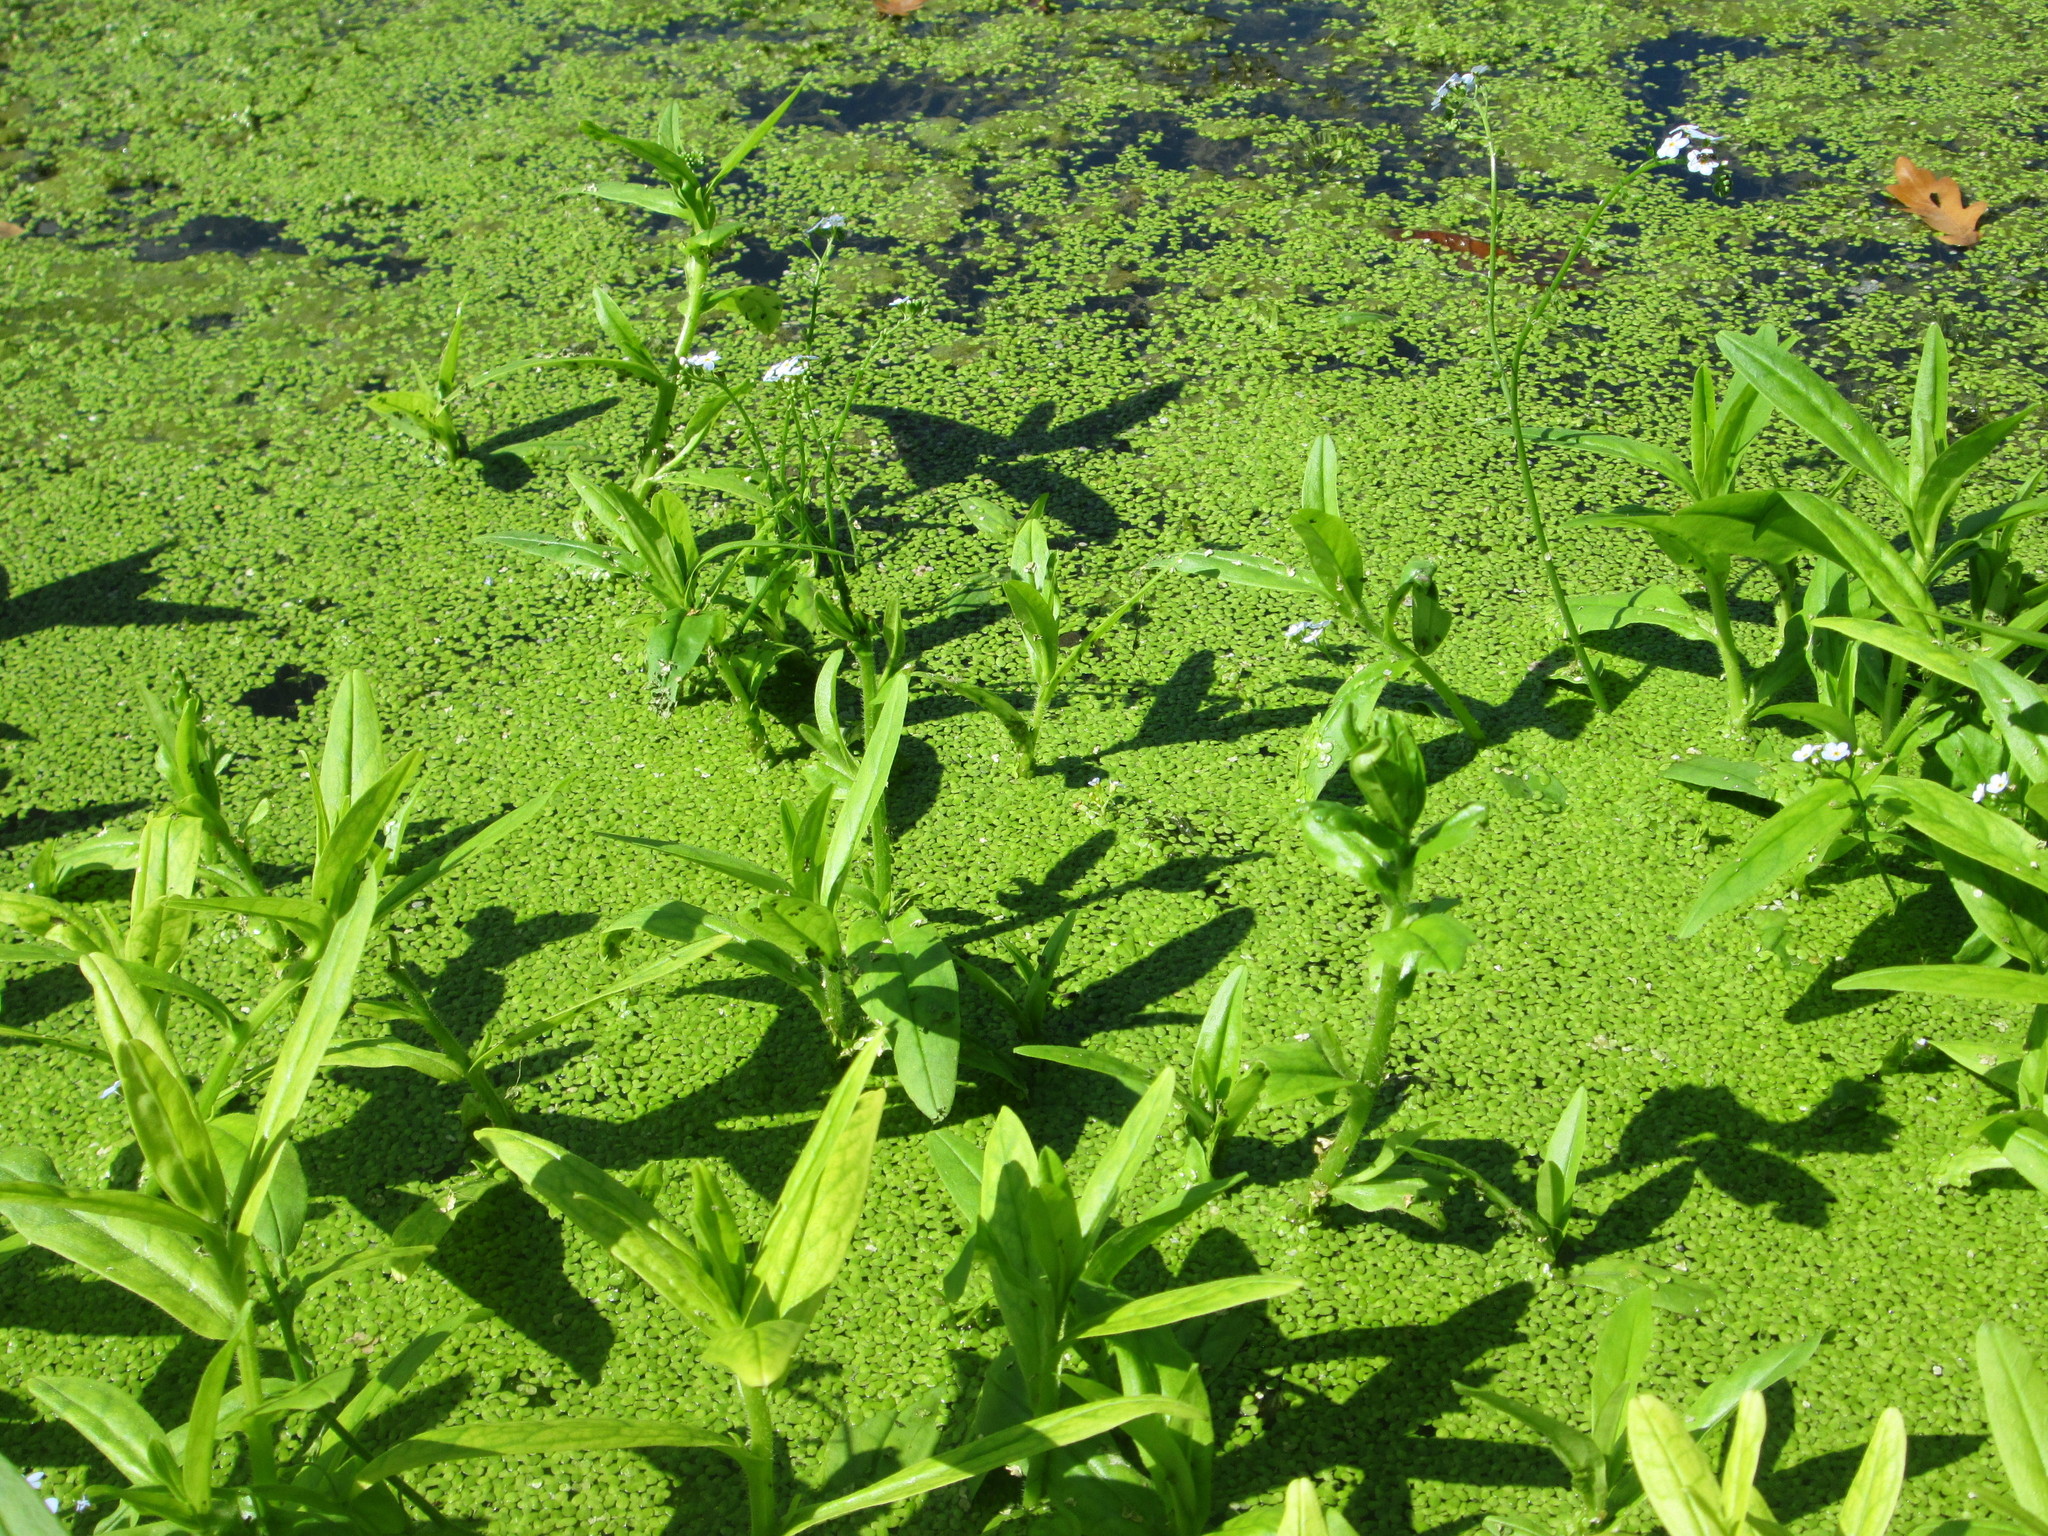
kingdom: Plantae
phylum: Tracheophyta
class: Magnoliopsida
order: Boraginales
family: Boraginaceae
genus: Myosotis
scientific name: Myosotis scorpioides
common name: Water forget-me-not
